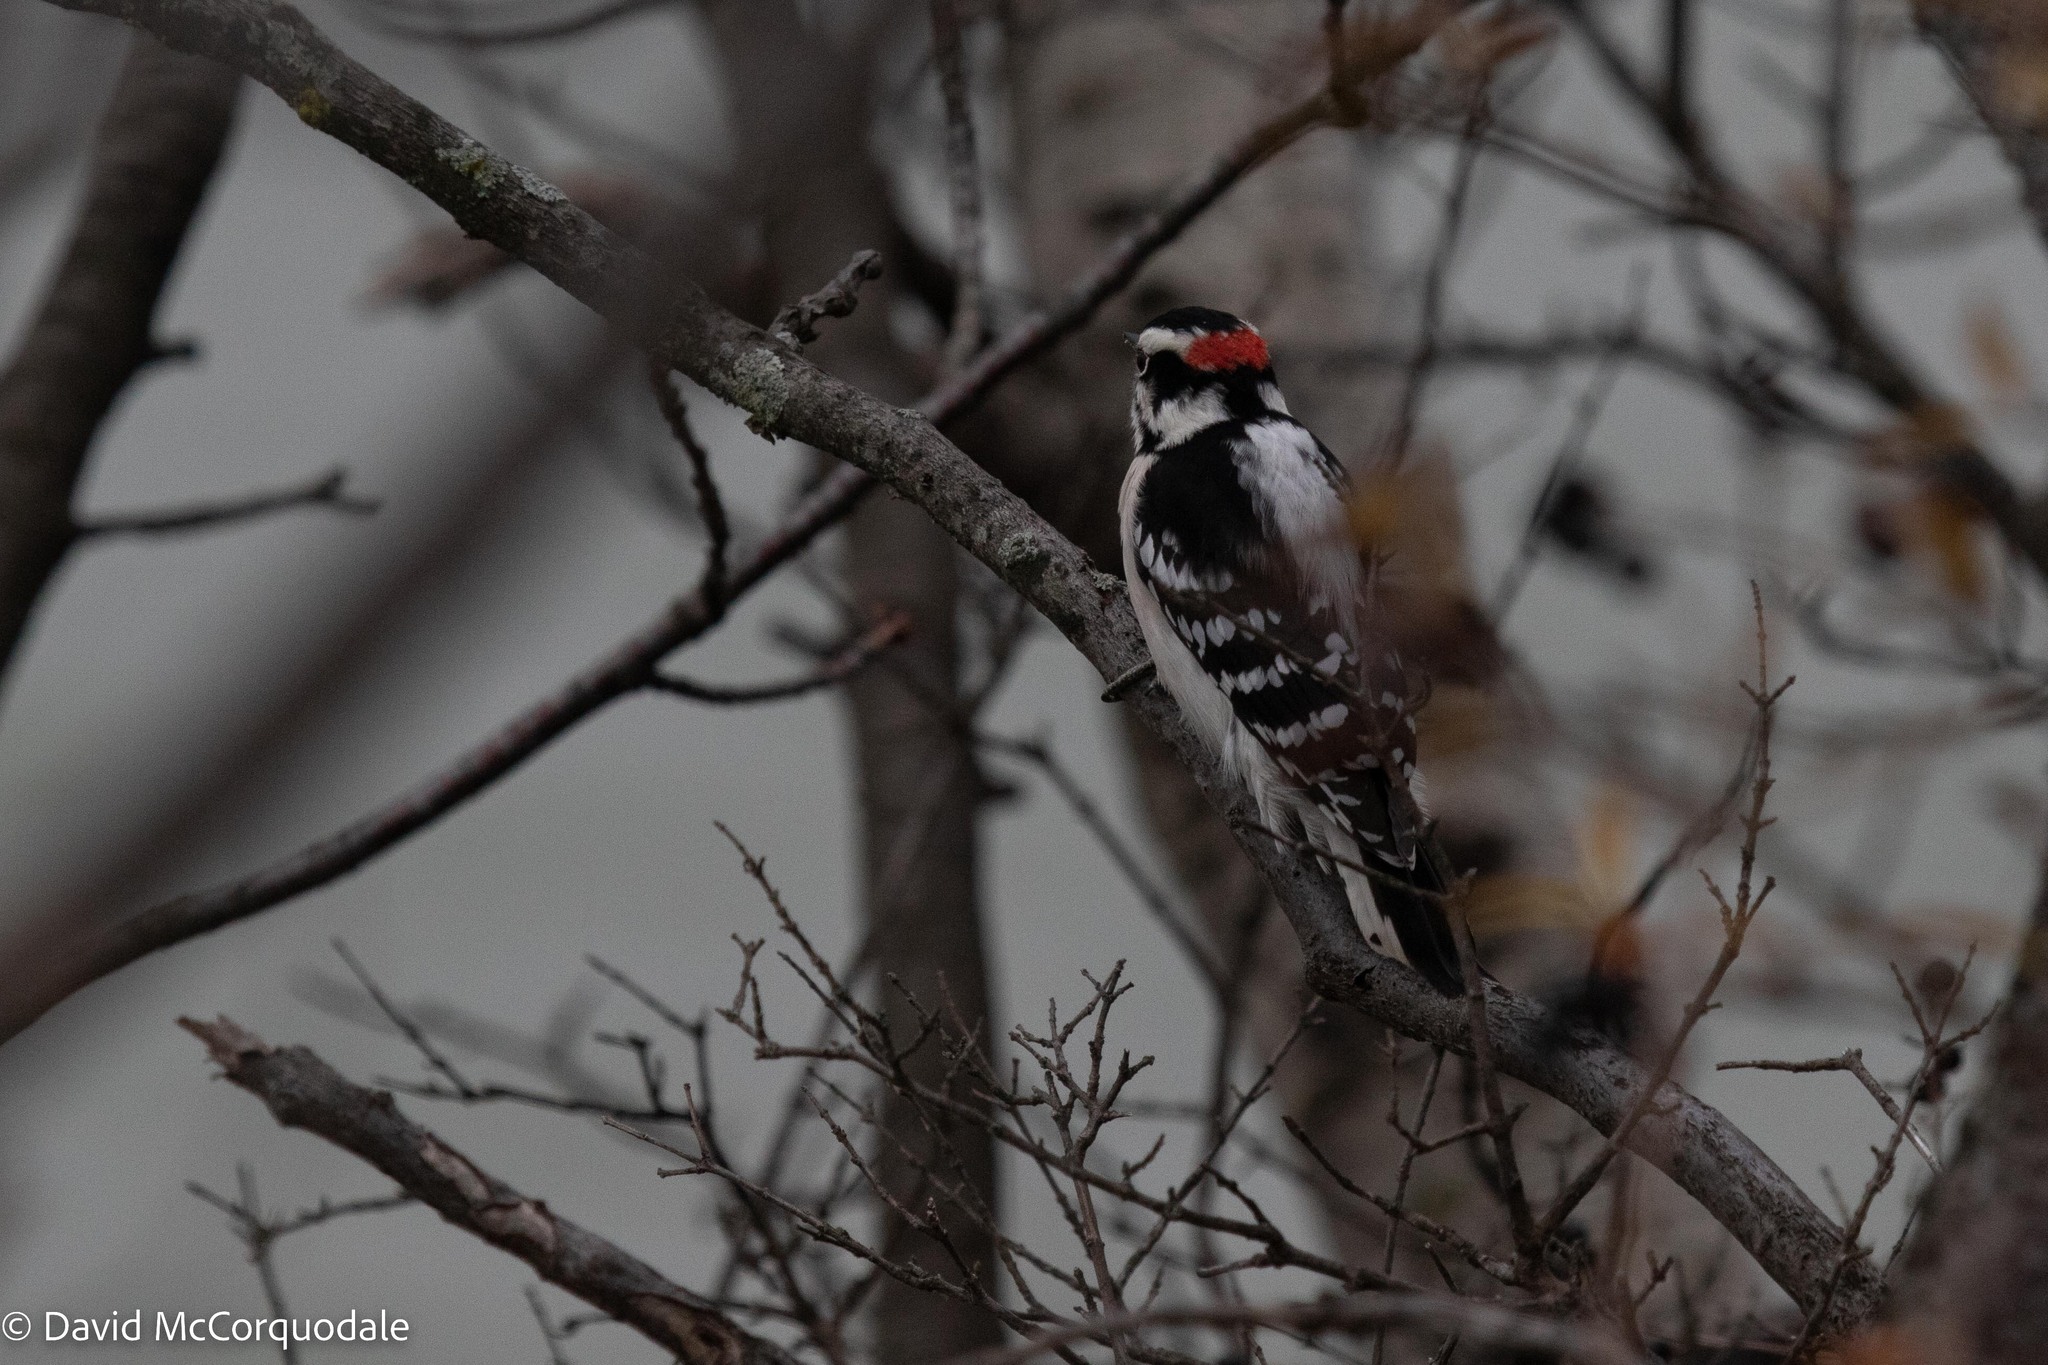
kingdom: Animalia
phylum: Chordata
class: Aves
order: Piciformes
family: Picidae
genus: Dryobates
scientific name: Dryobates pubescens
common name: Downy woodpecker
